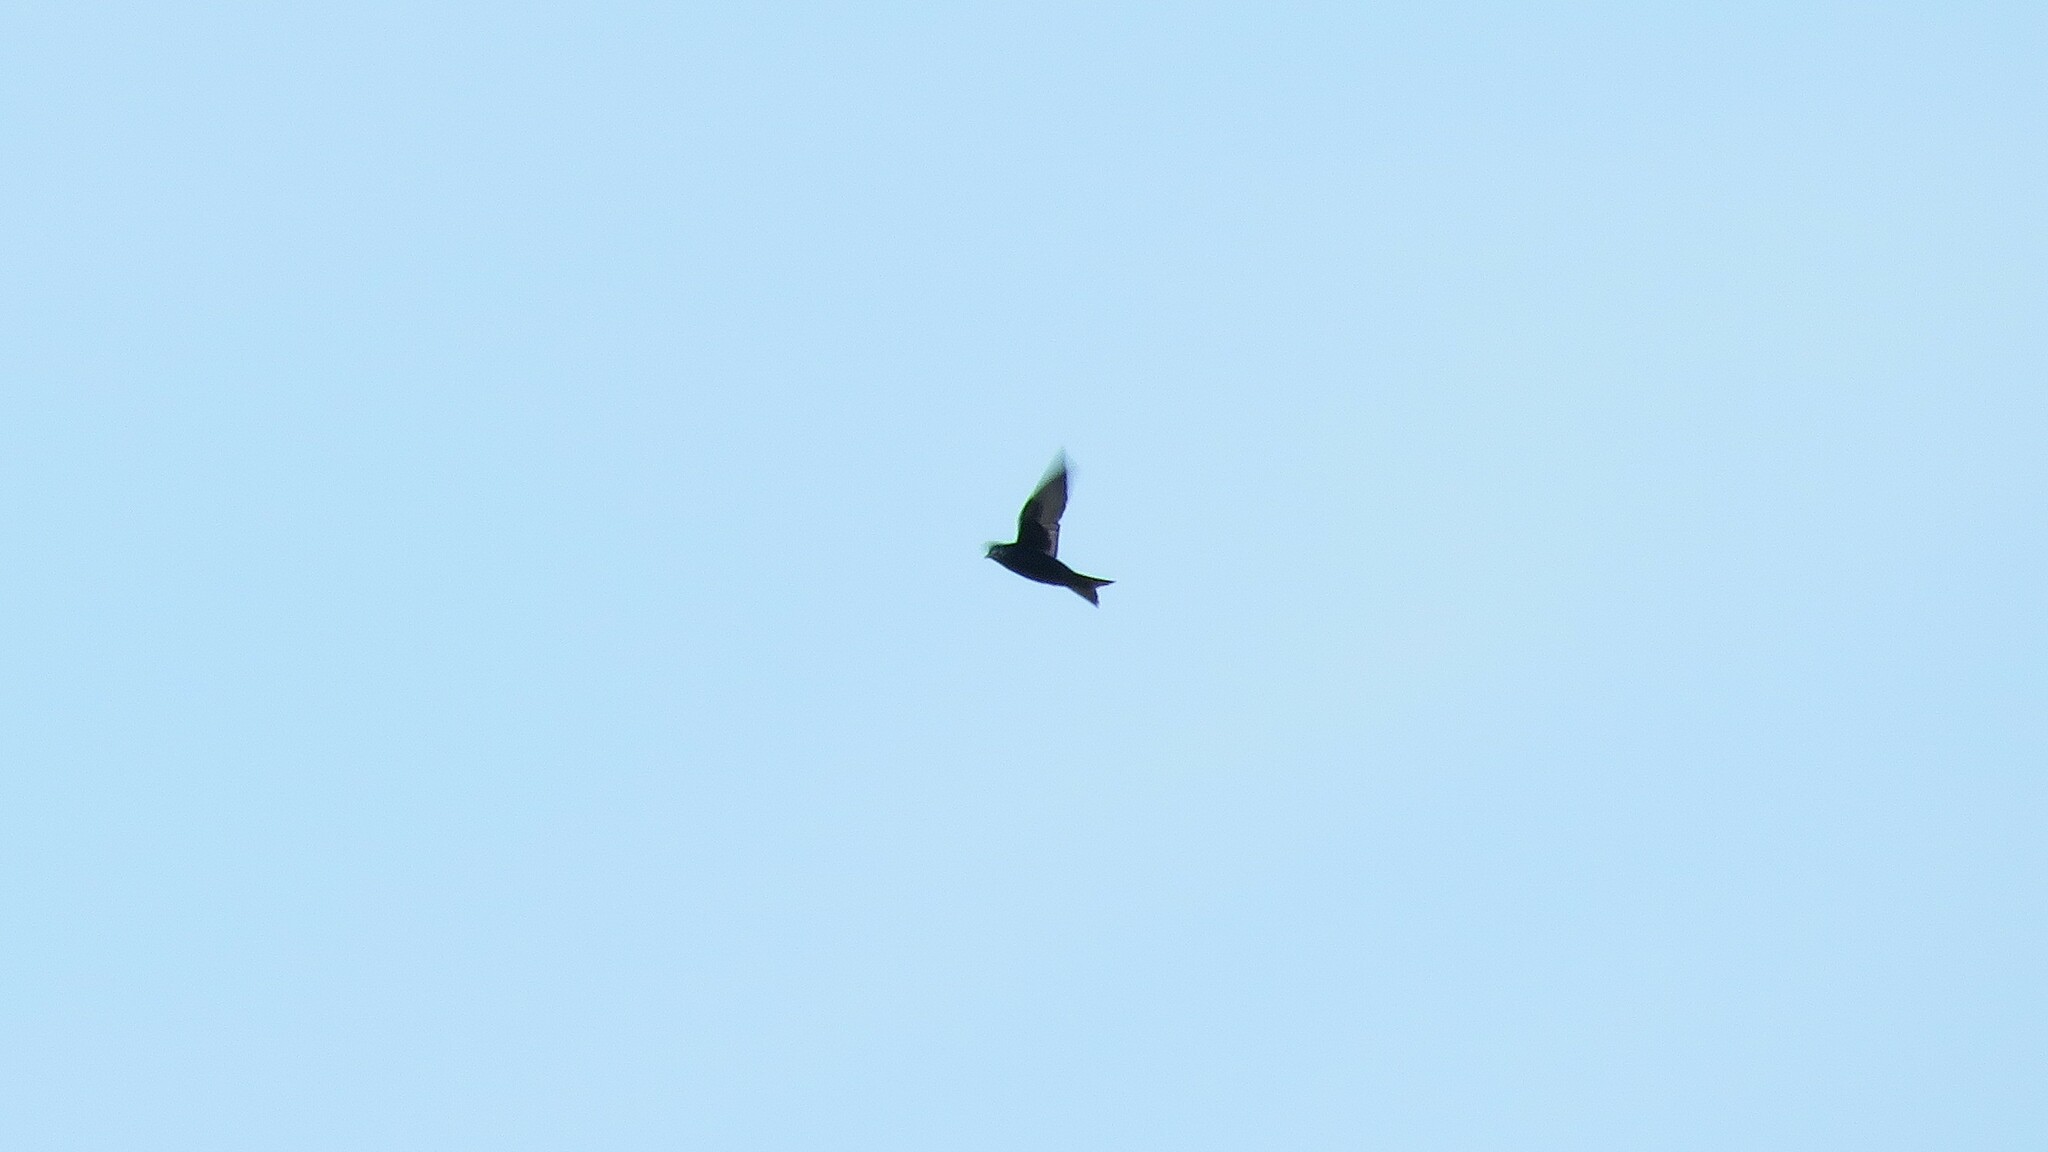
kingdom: Animalia
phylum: Chordata
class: Aves
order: Passeriformes
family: Hirundinidae
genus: Progne
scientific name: Progne subis
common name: Purple martin
